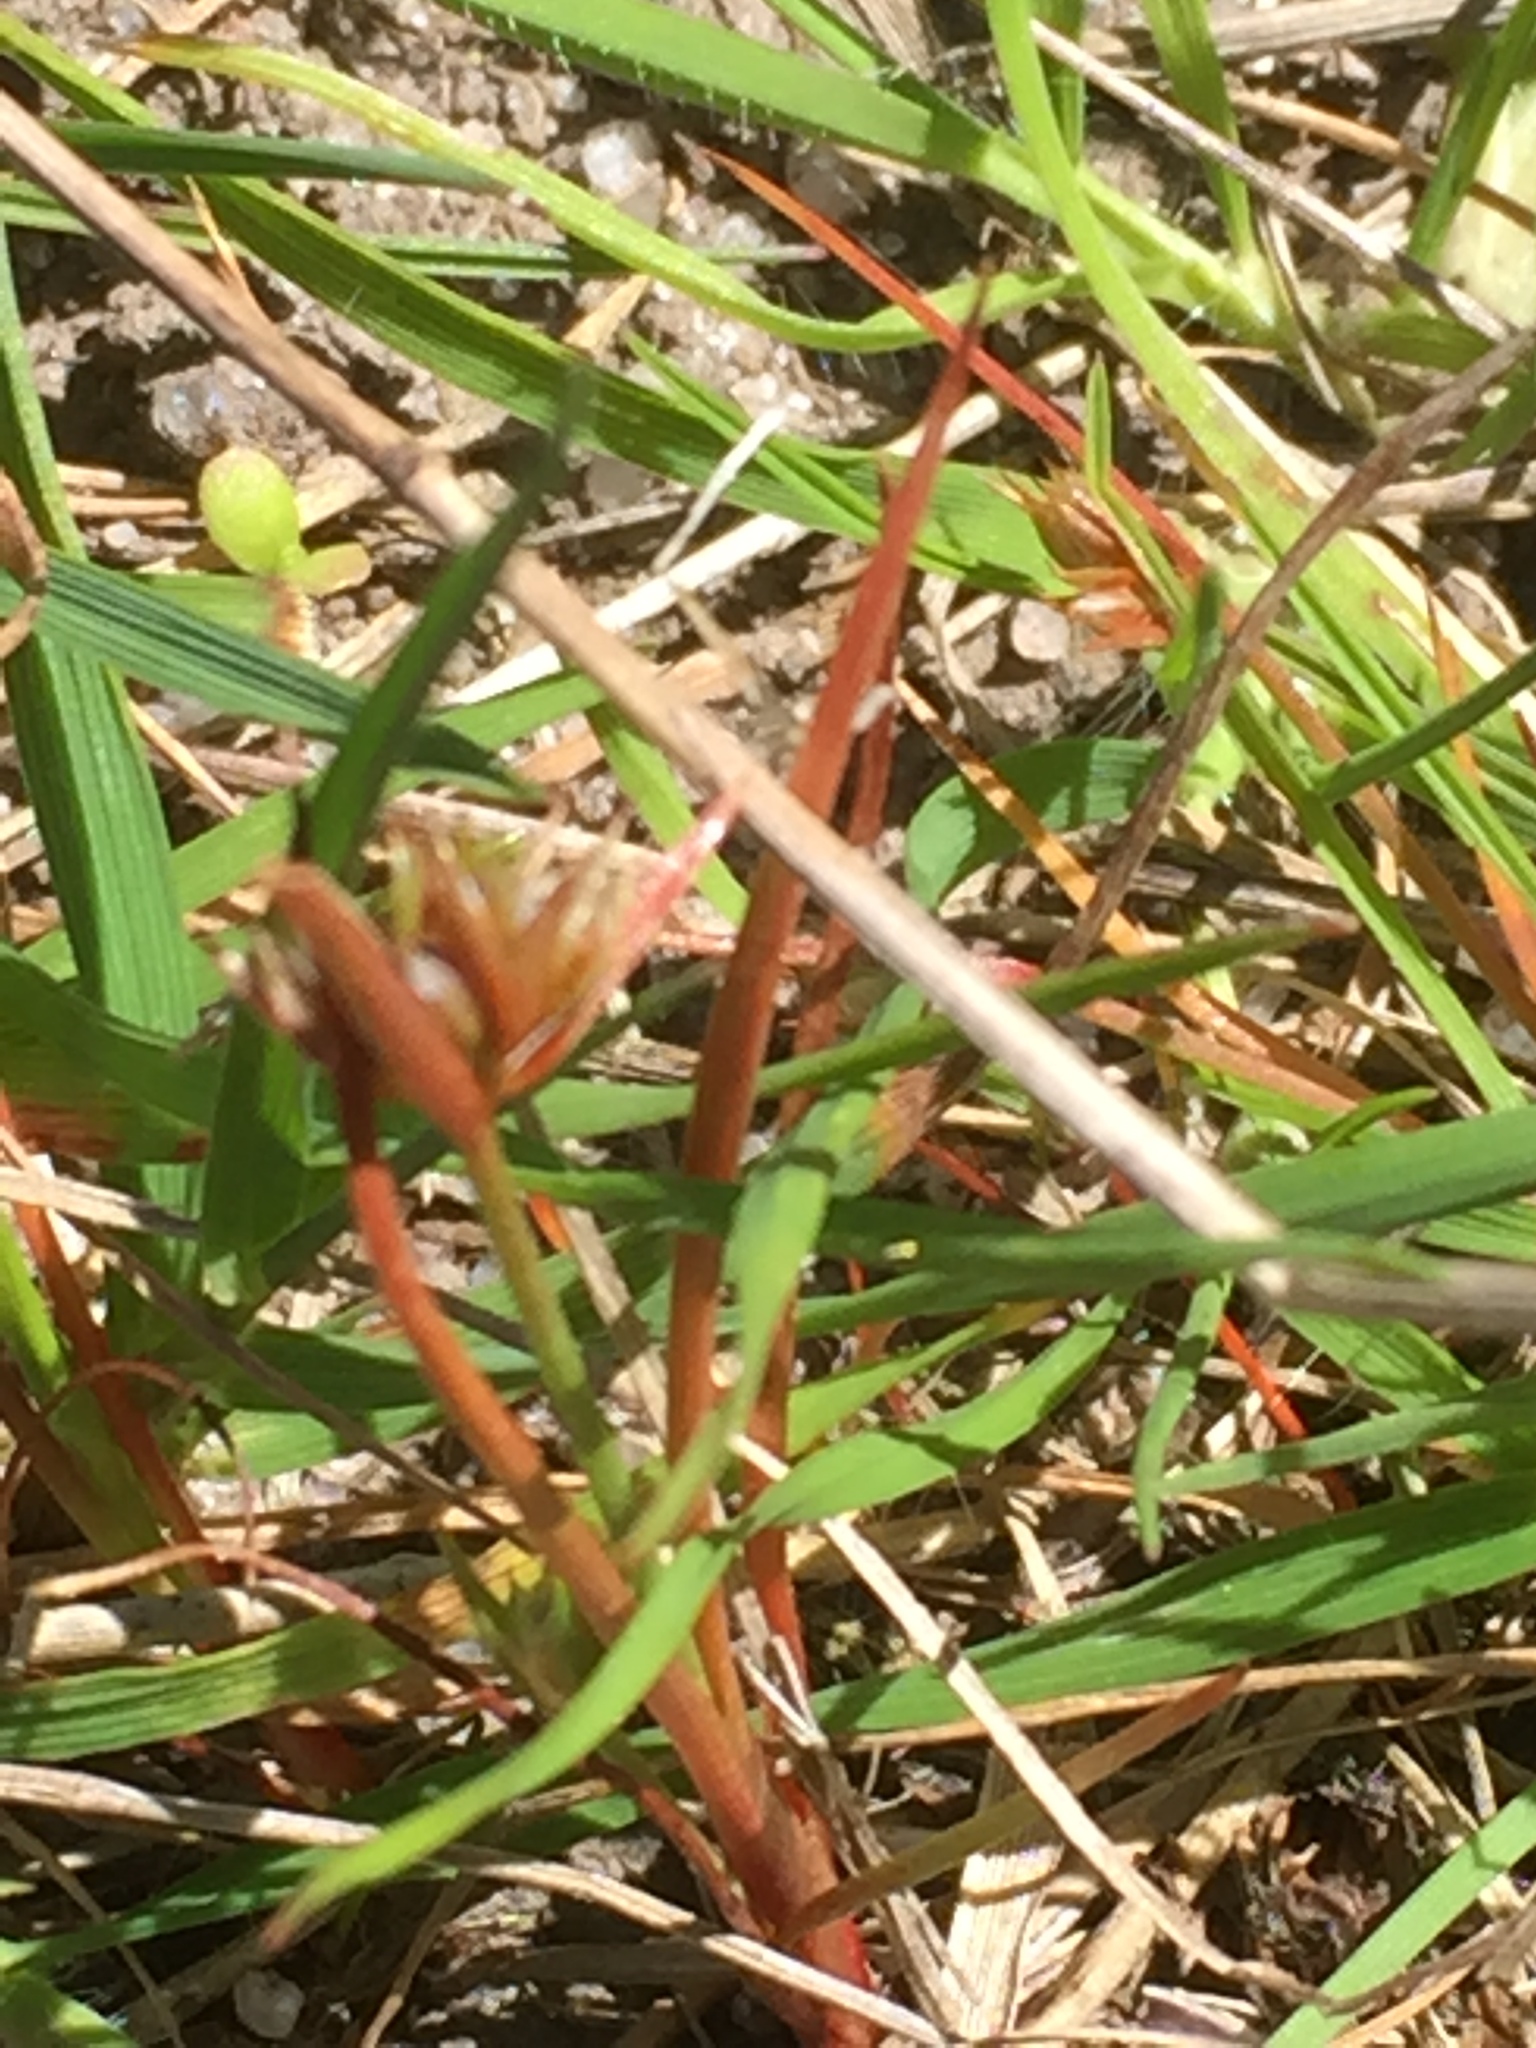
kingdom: Plantae
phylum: Tracheophyta
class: Liliopsida
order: Poales
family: Juncaceae
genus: Juncus
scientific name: Juncus capitatus
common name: Dwarf rush
